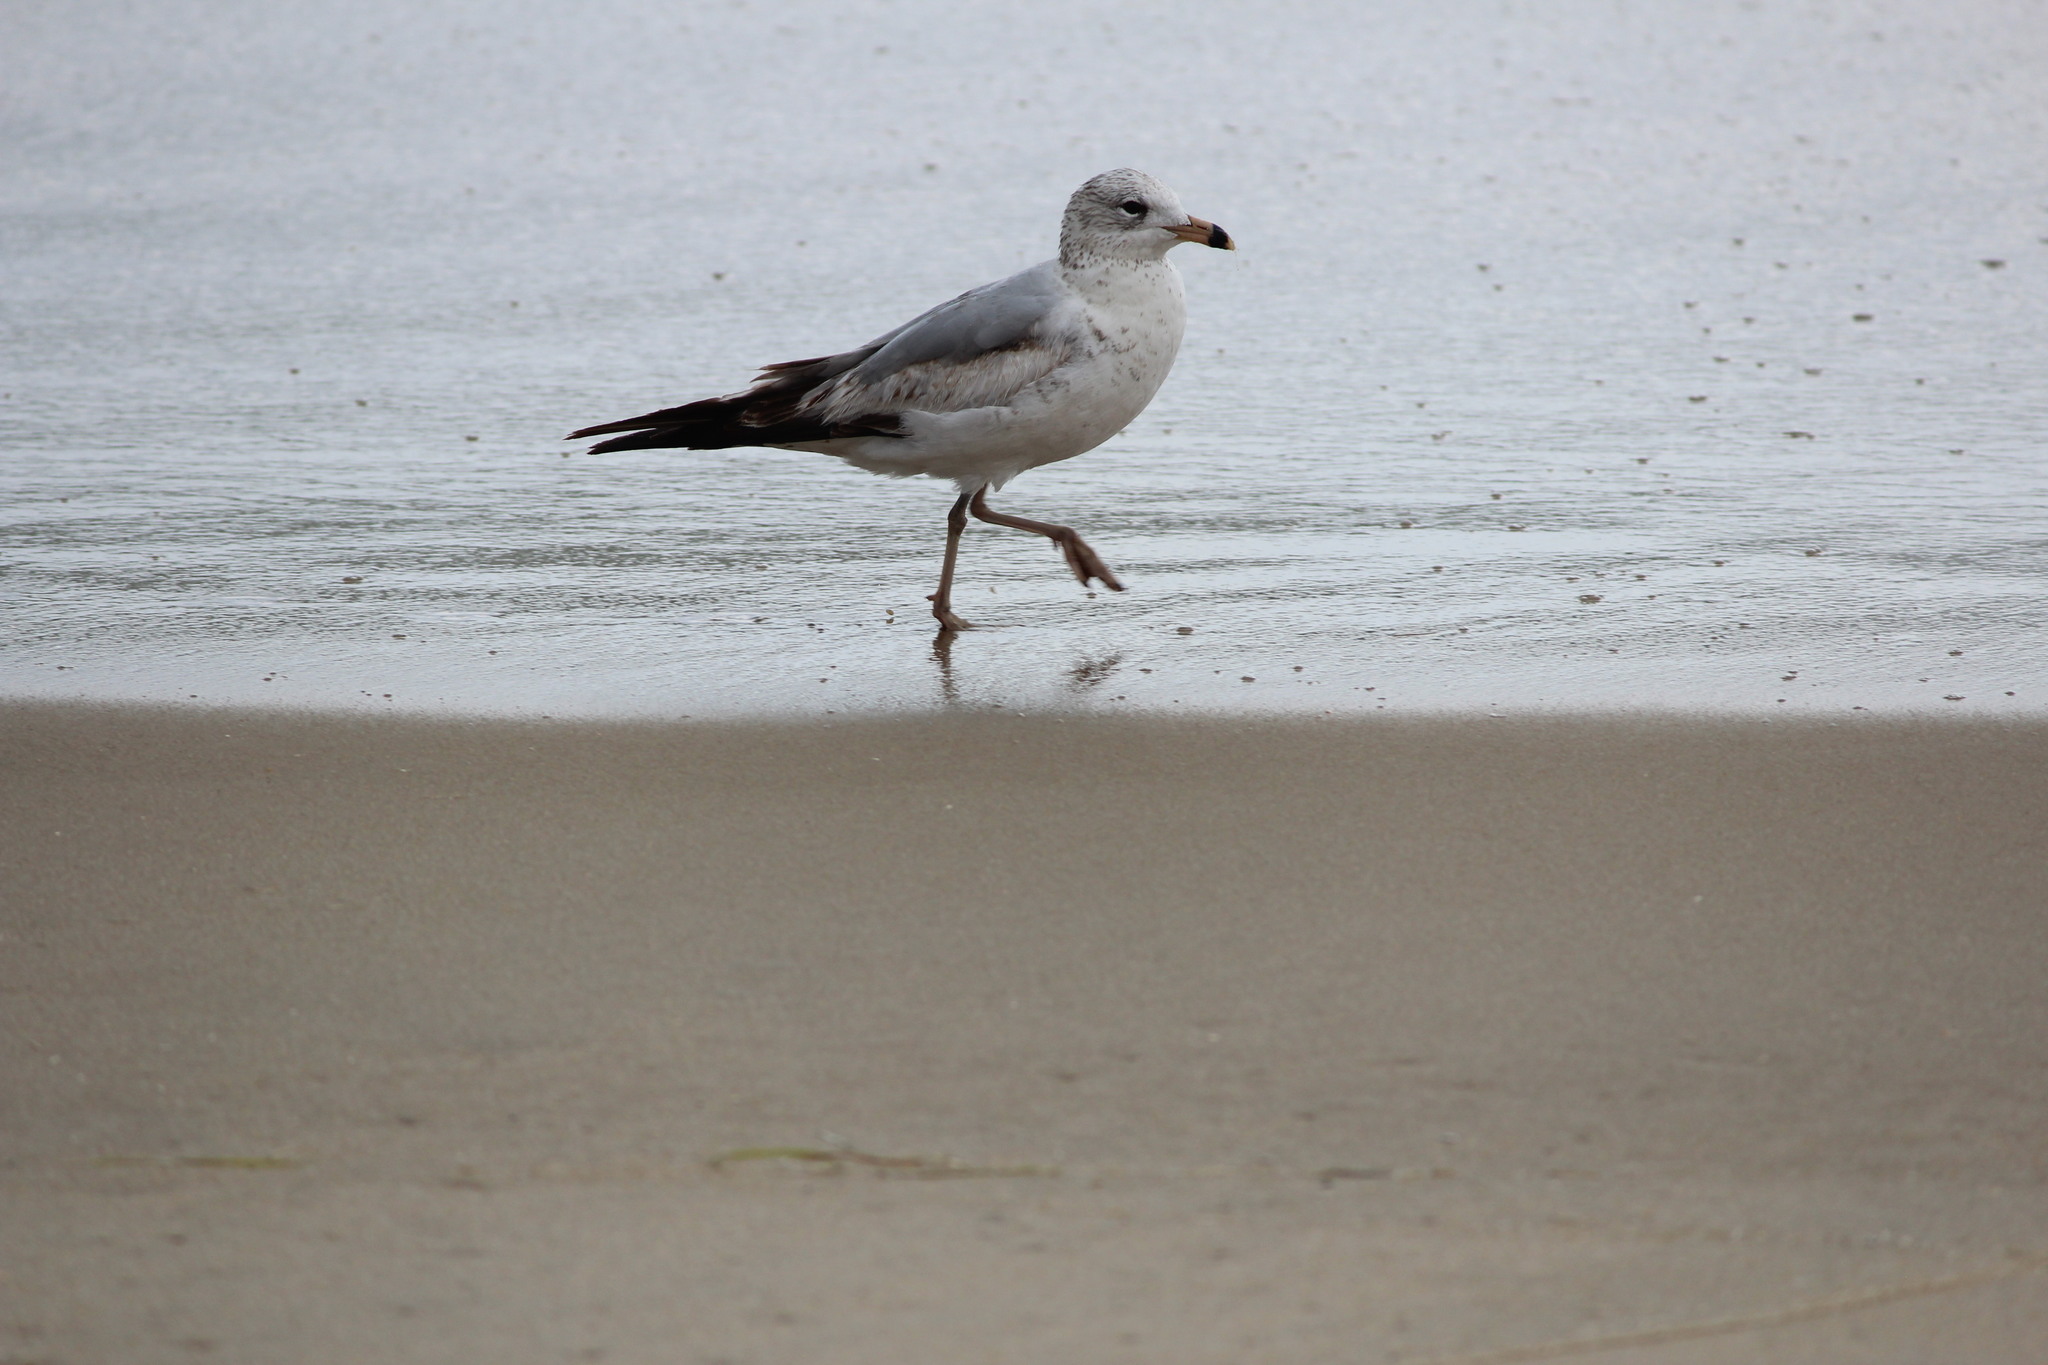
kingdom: Animalia
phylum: Chordata
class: Aves
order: Charadriiformes
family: Laridae
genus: Larus
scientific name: Larus delawarensis
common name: Ring-billed gull
